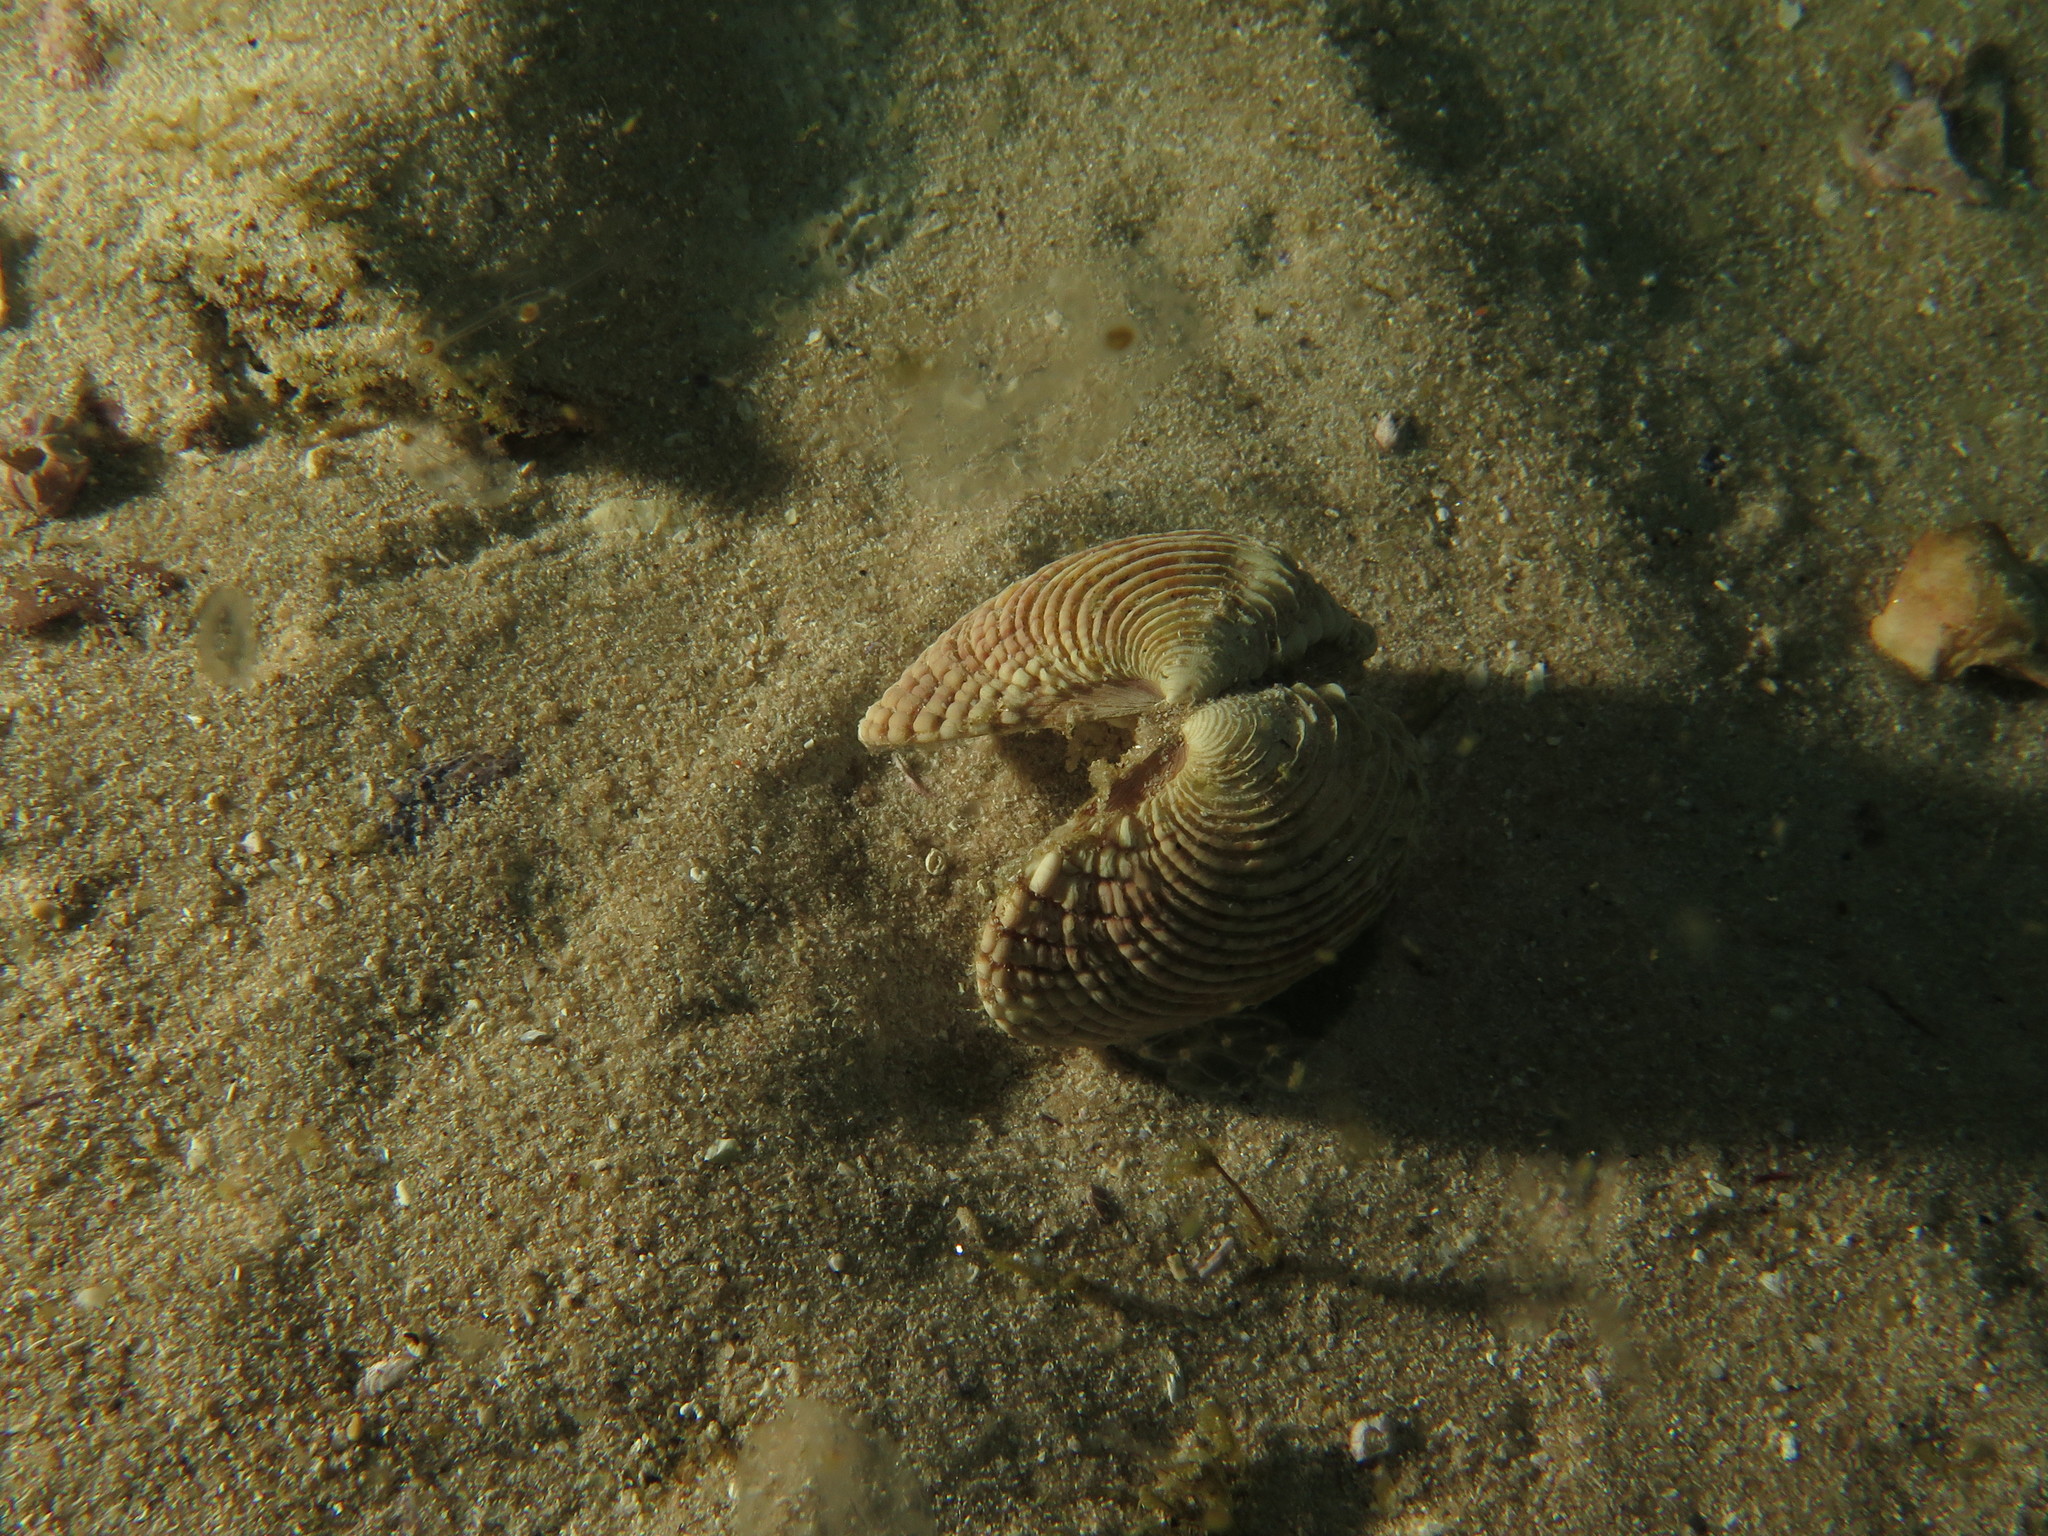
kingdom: Animalia
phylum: Mollusca
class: Bivalvia
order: Venerida
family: Veneridae
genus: Venus
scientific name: Venus verrucosa
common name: Warty venus
